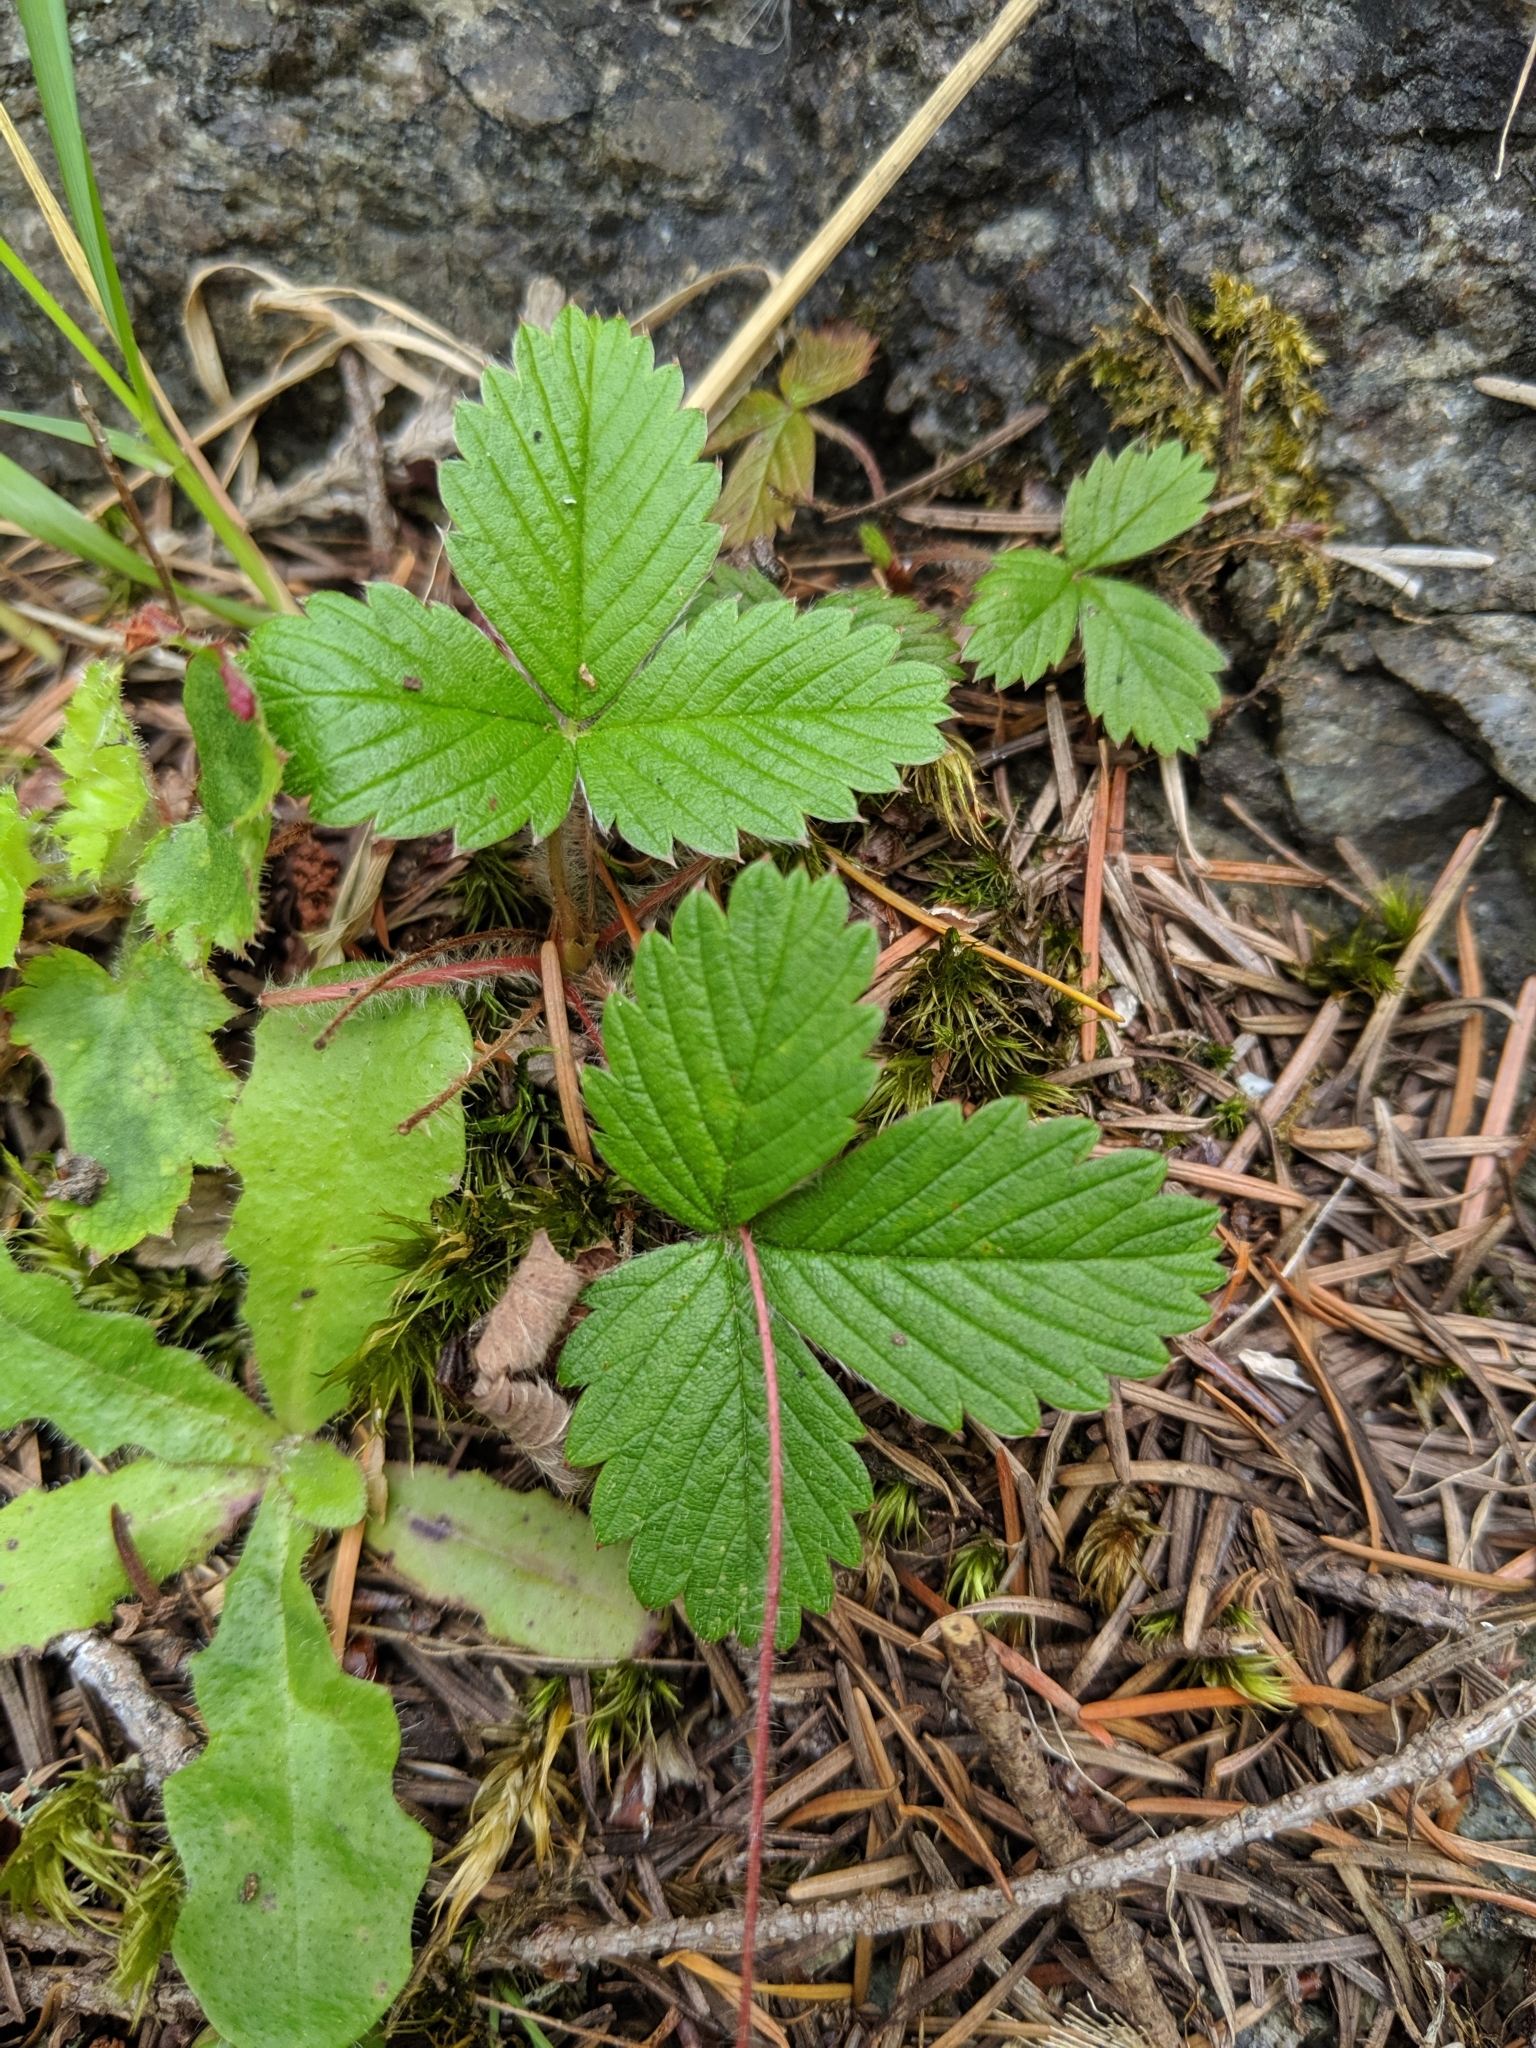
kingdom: Plantae
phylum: Tracheophyta
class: Magnoliopsida
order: Rosales
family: Rosaceae
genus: Fragaria
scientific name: Fragaria vesca
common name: Wild strawberry
